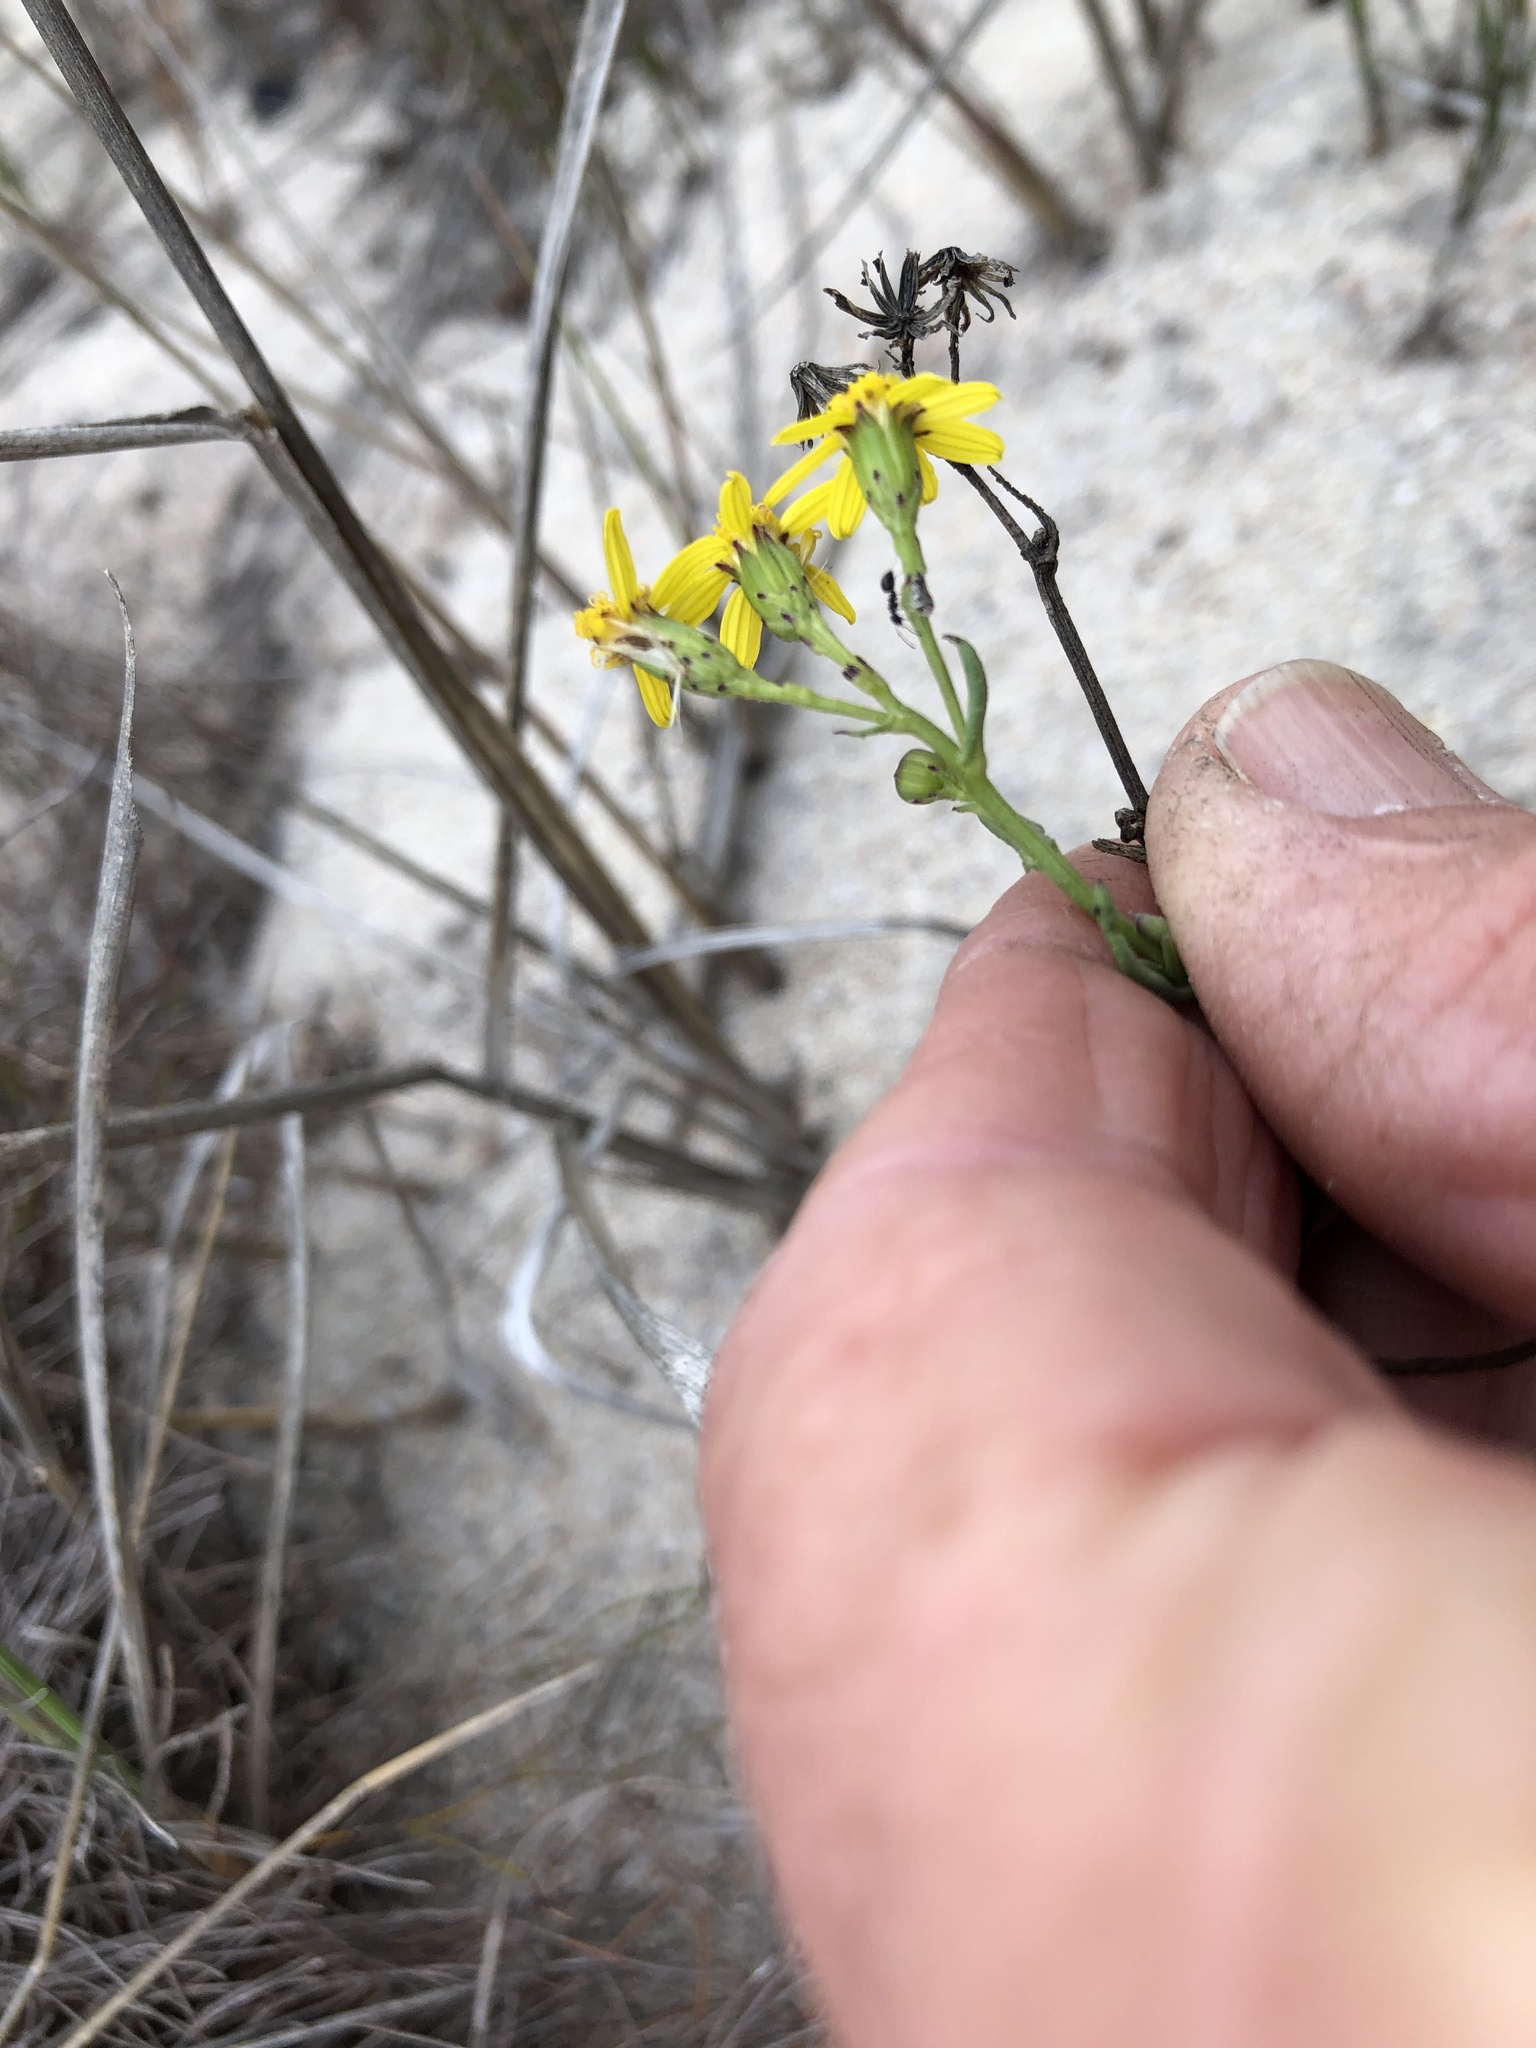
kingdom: Plantae
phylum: Tracheophyta
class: Magnoliopsida
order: Asterales
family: Asteraceae
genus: Senecio
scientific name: Senecio burchellii
